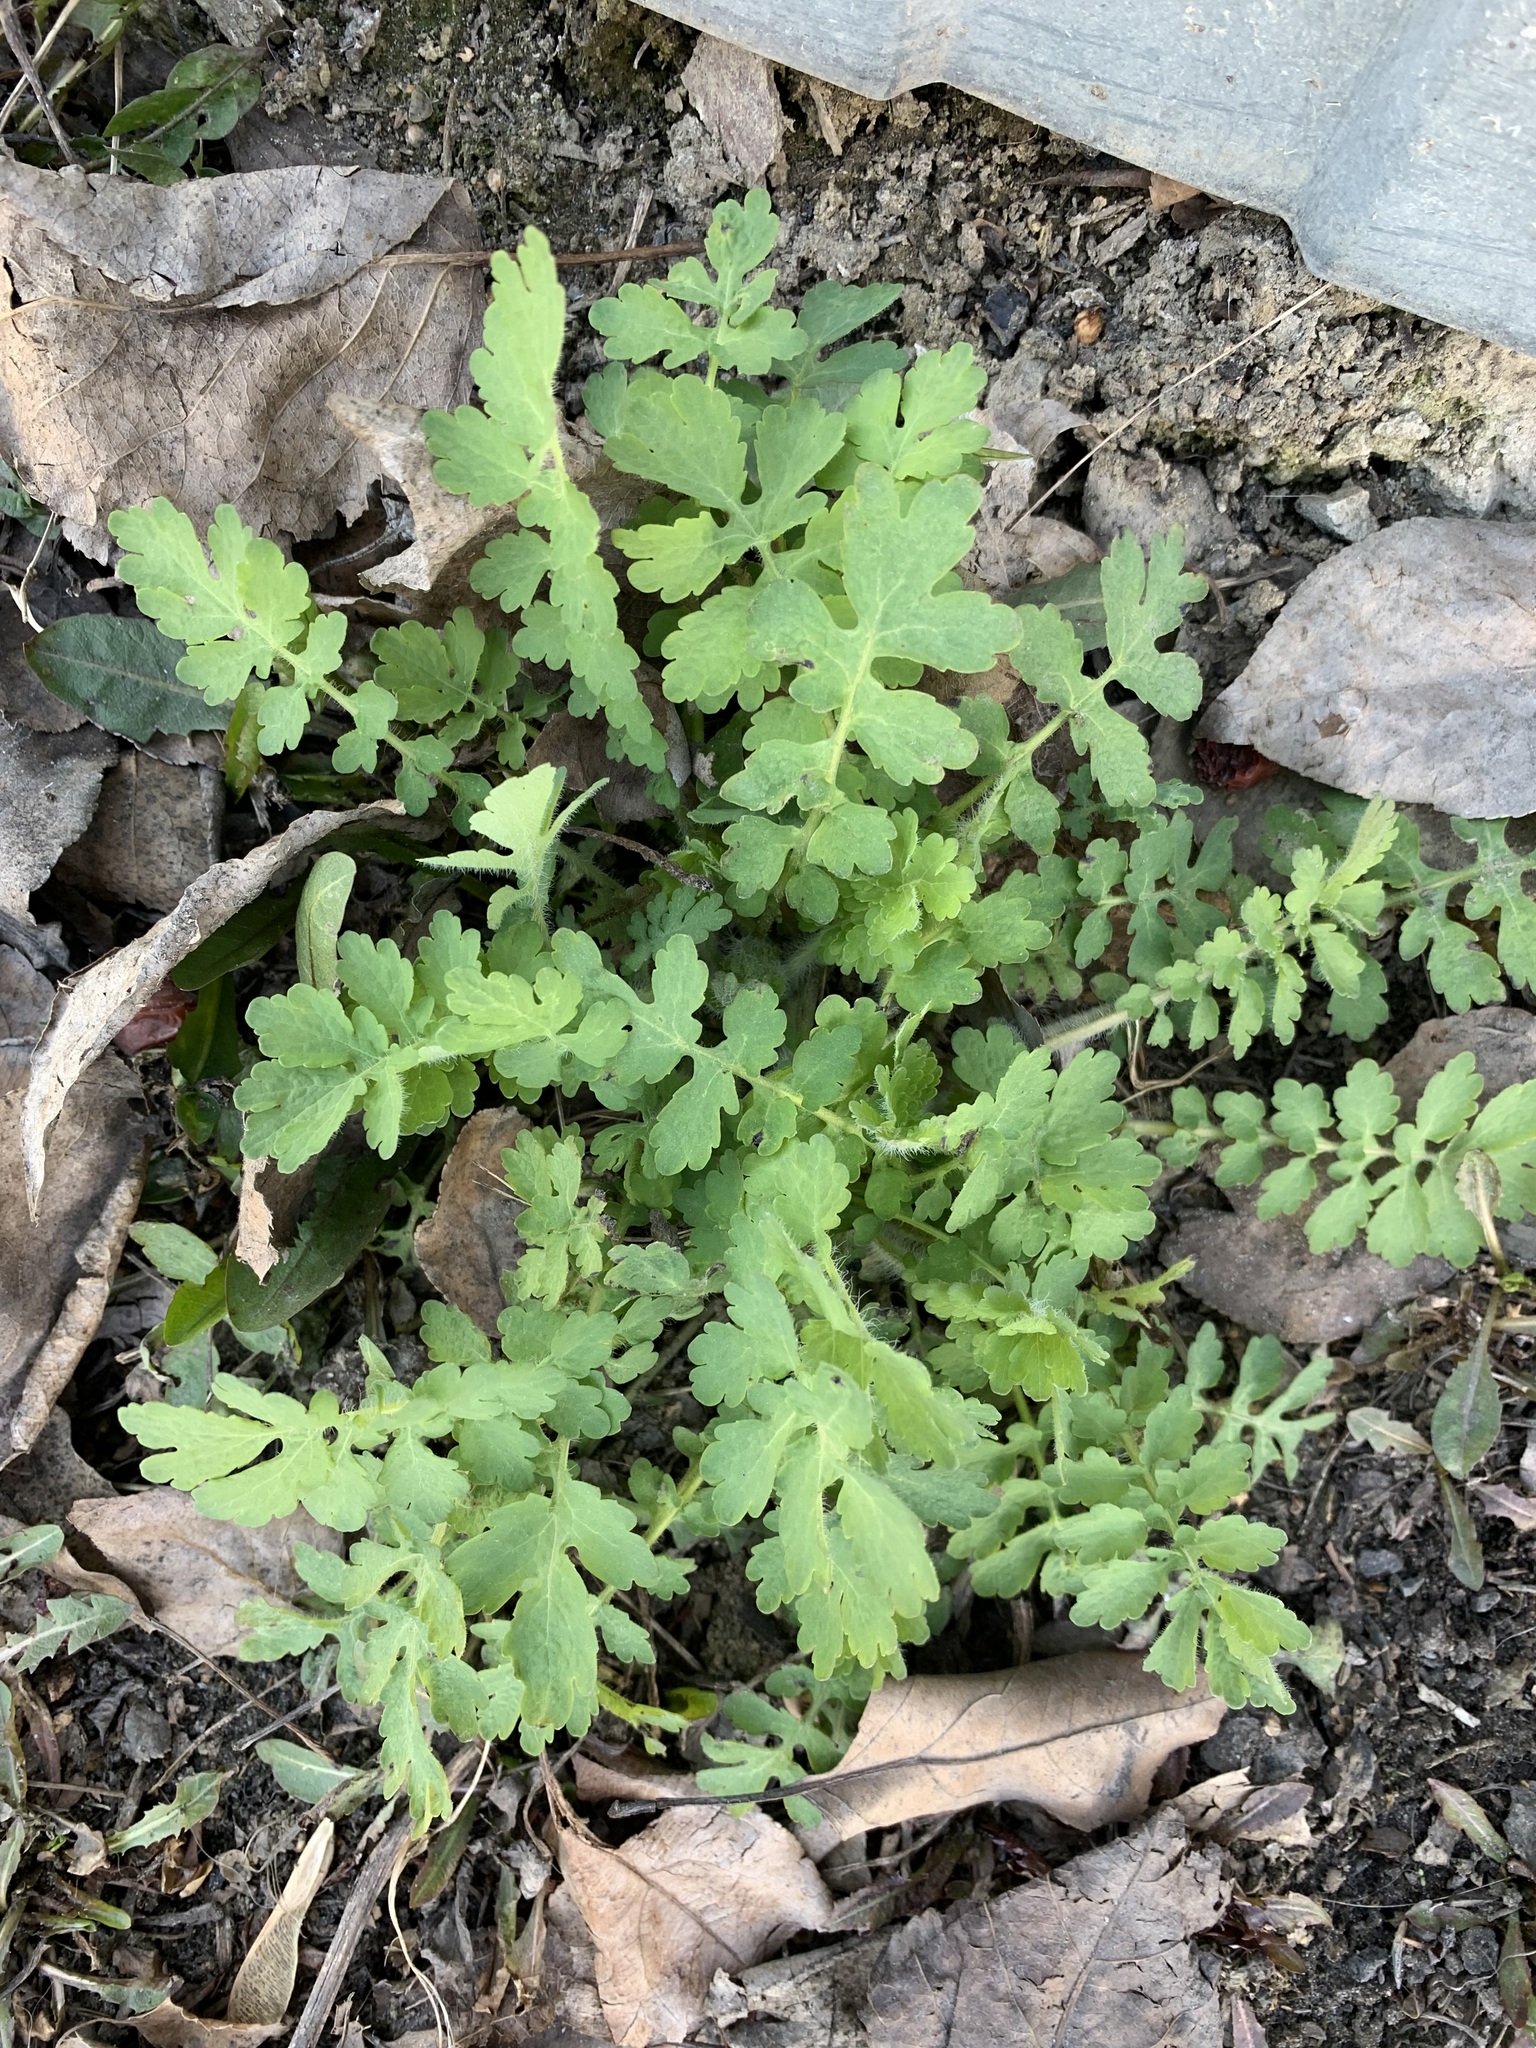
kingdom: Plantae
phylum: Tracheophyta
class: Magnoliopsida
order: Ranunculales
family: Papaveraceae
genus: Chelidonium
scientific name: Chelidonium majus
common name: Greater celandine
